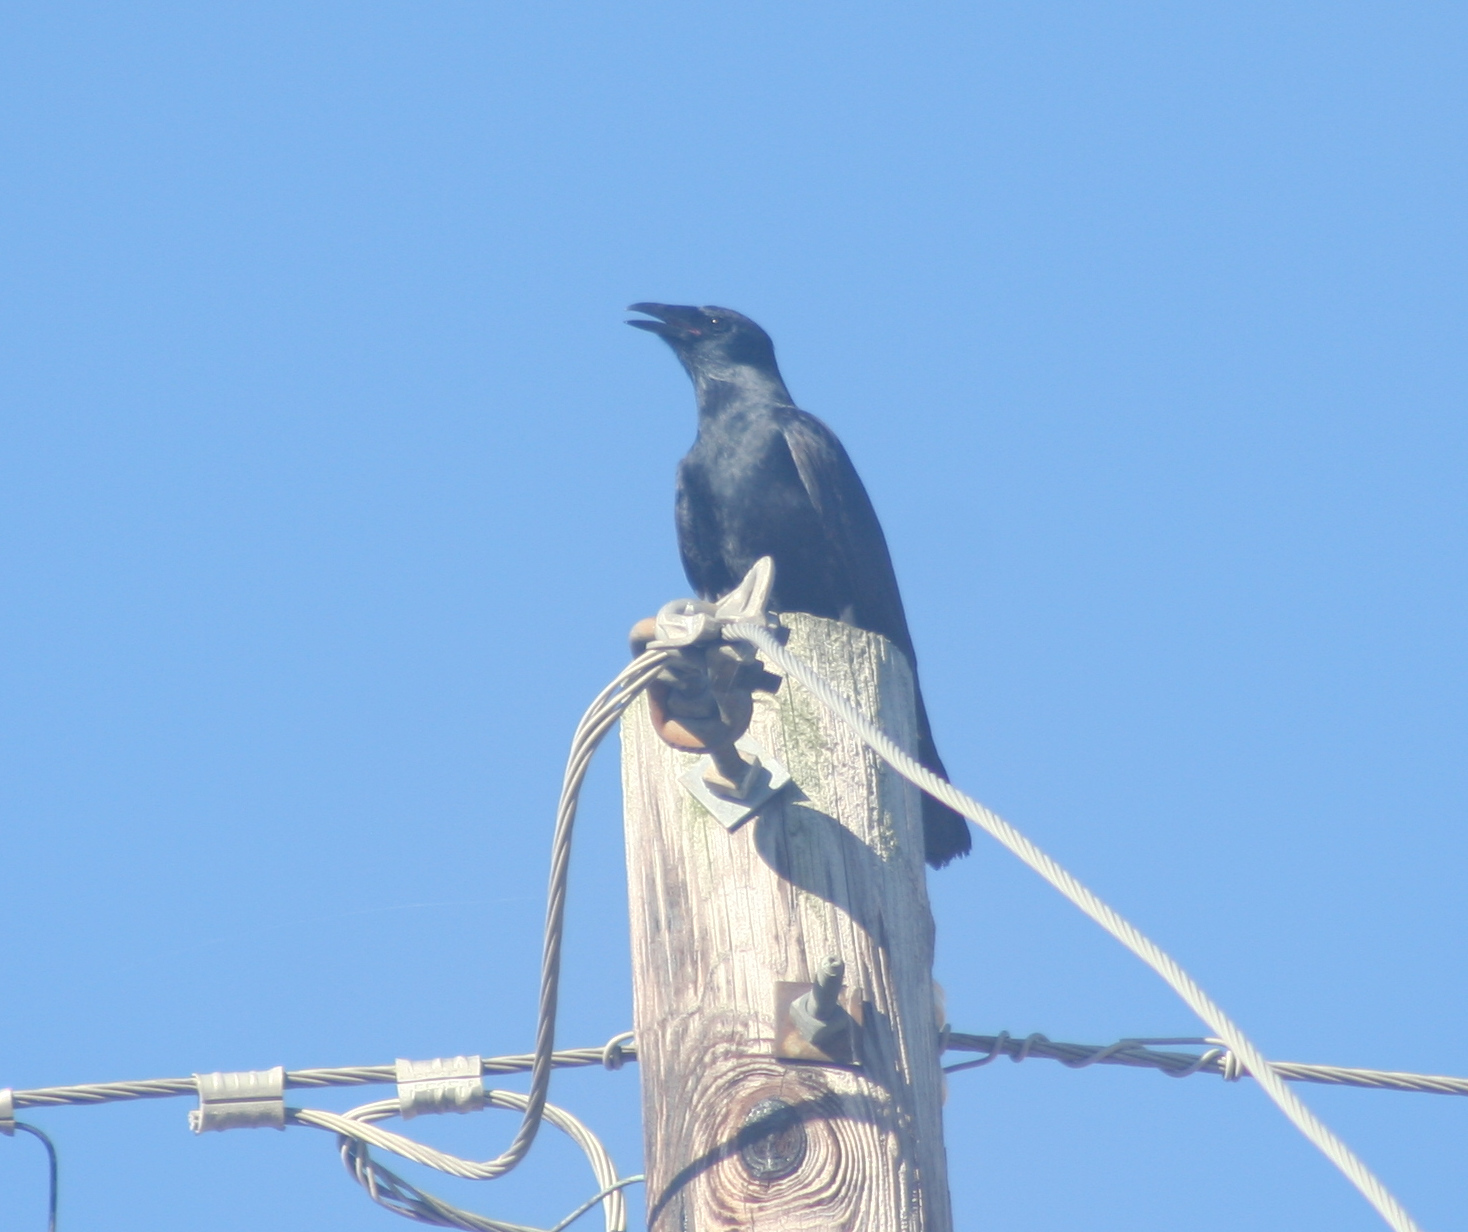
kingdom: Animalia
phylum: Chordata
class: Aves
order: Passeriformes
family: Corvidae
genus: Corvus
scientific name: Corvus
